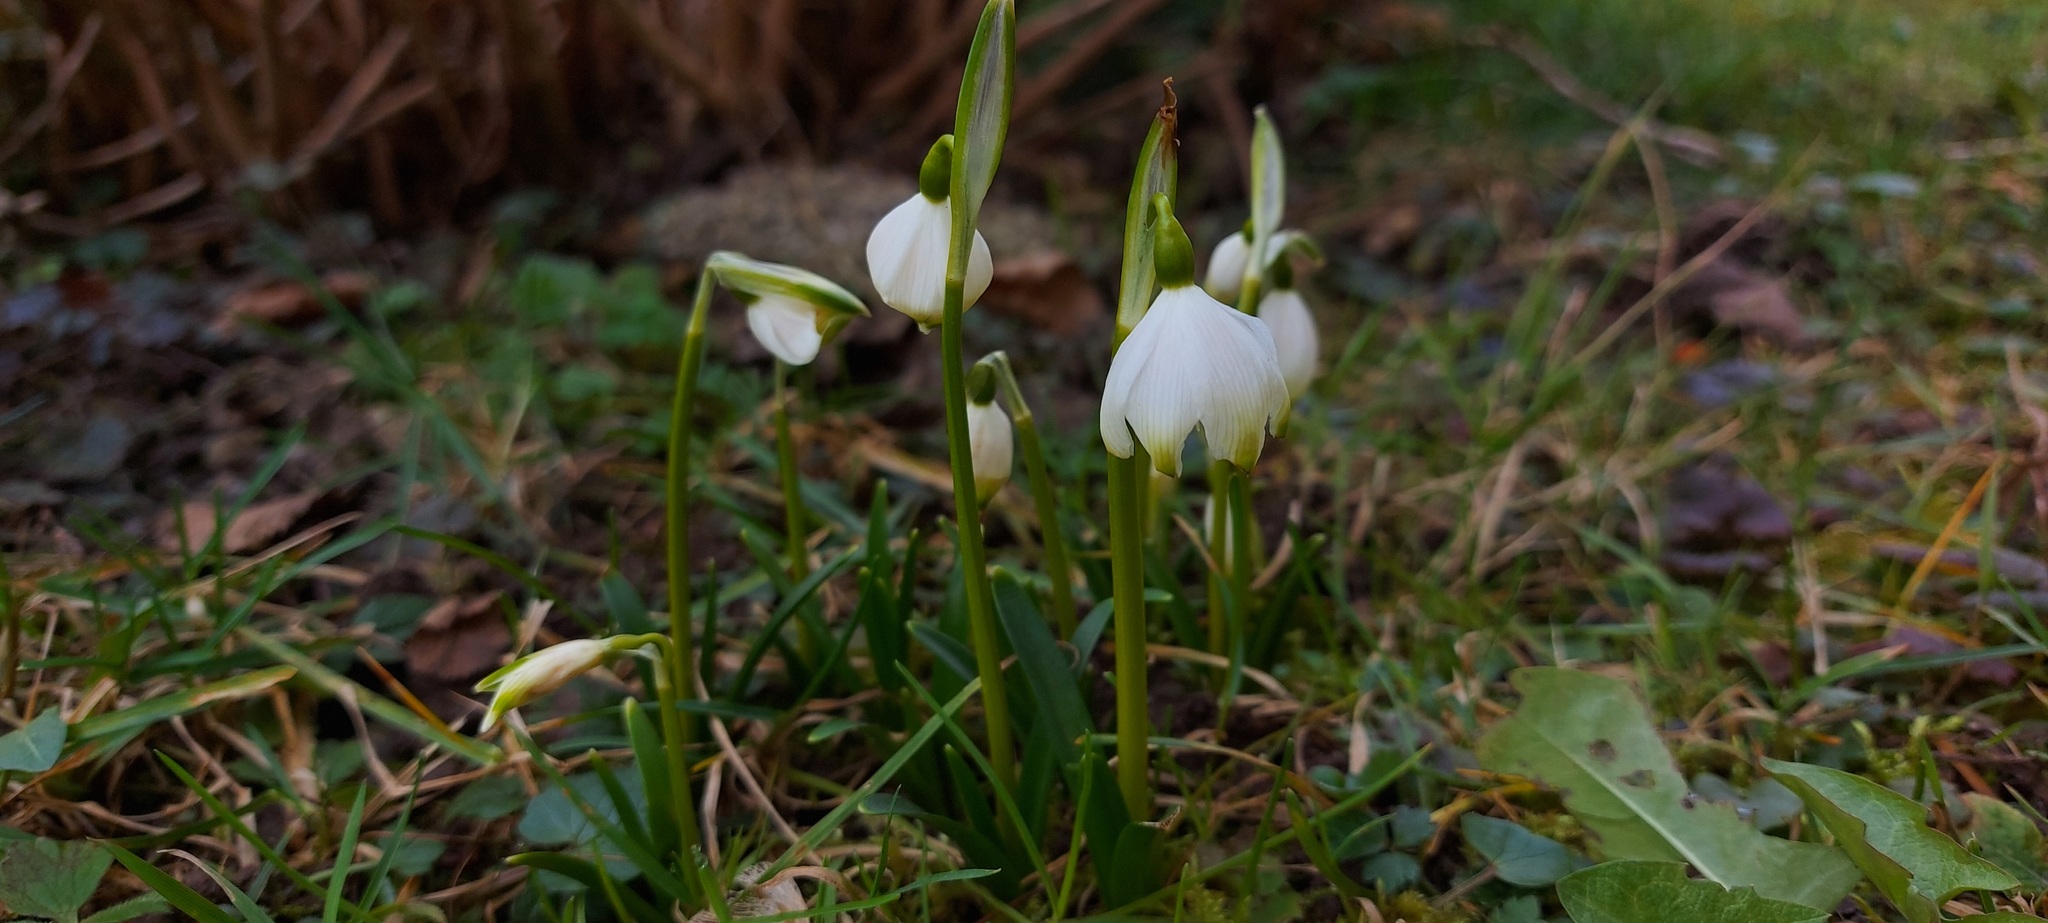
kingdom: Plantae
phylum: Tracheophyta
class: Liliopsida
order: Asparagales
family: Amaryllidaceae
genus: Leucojum
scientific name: Leucojum vernum
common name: Spring snowflake
